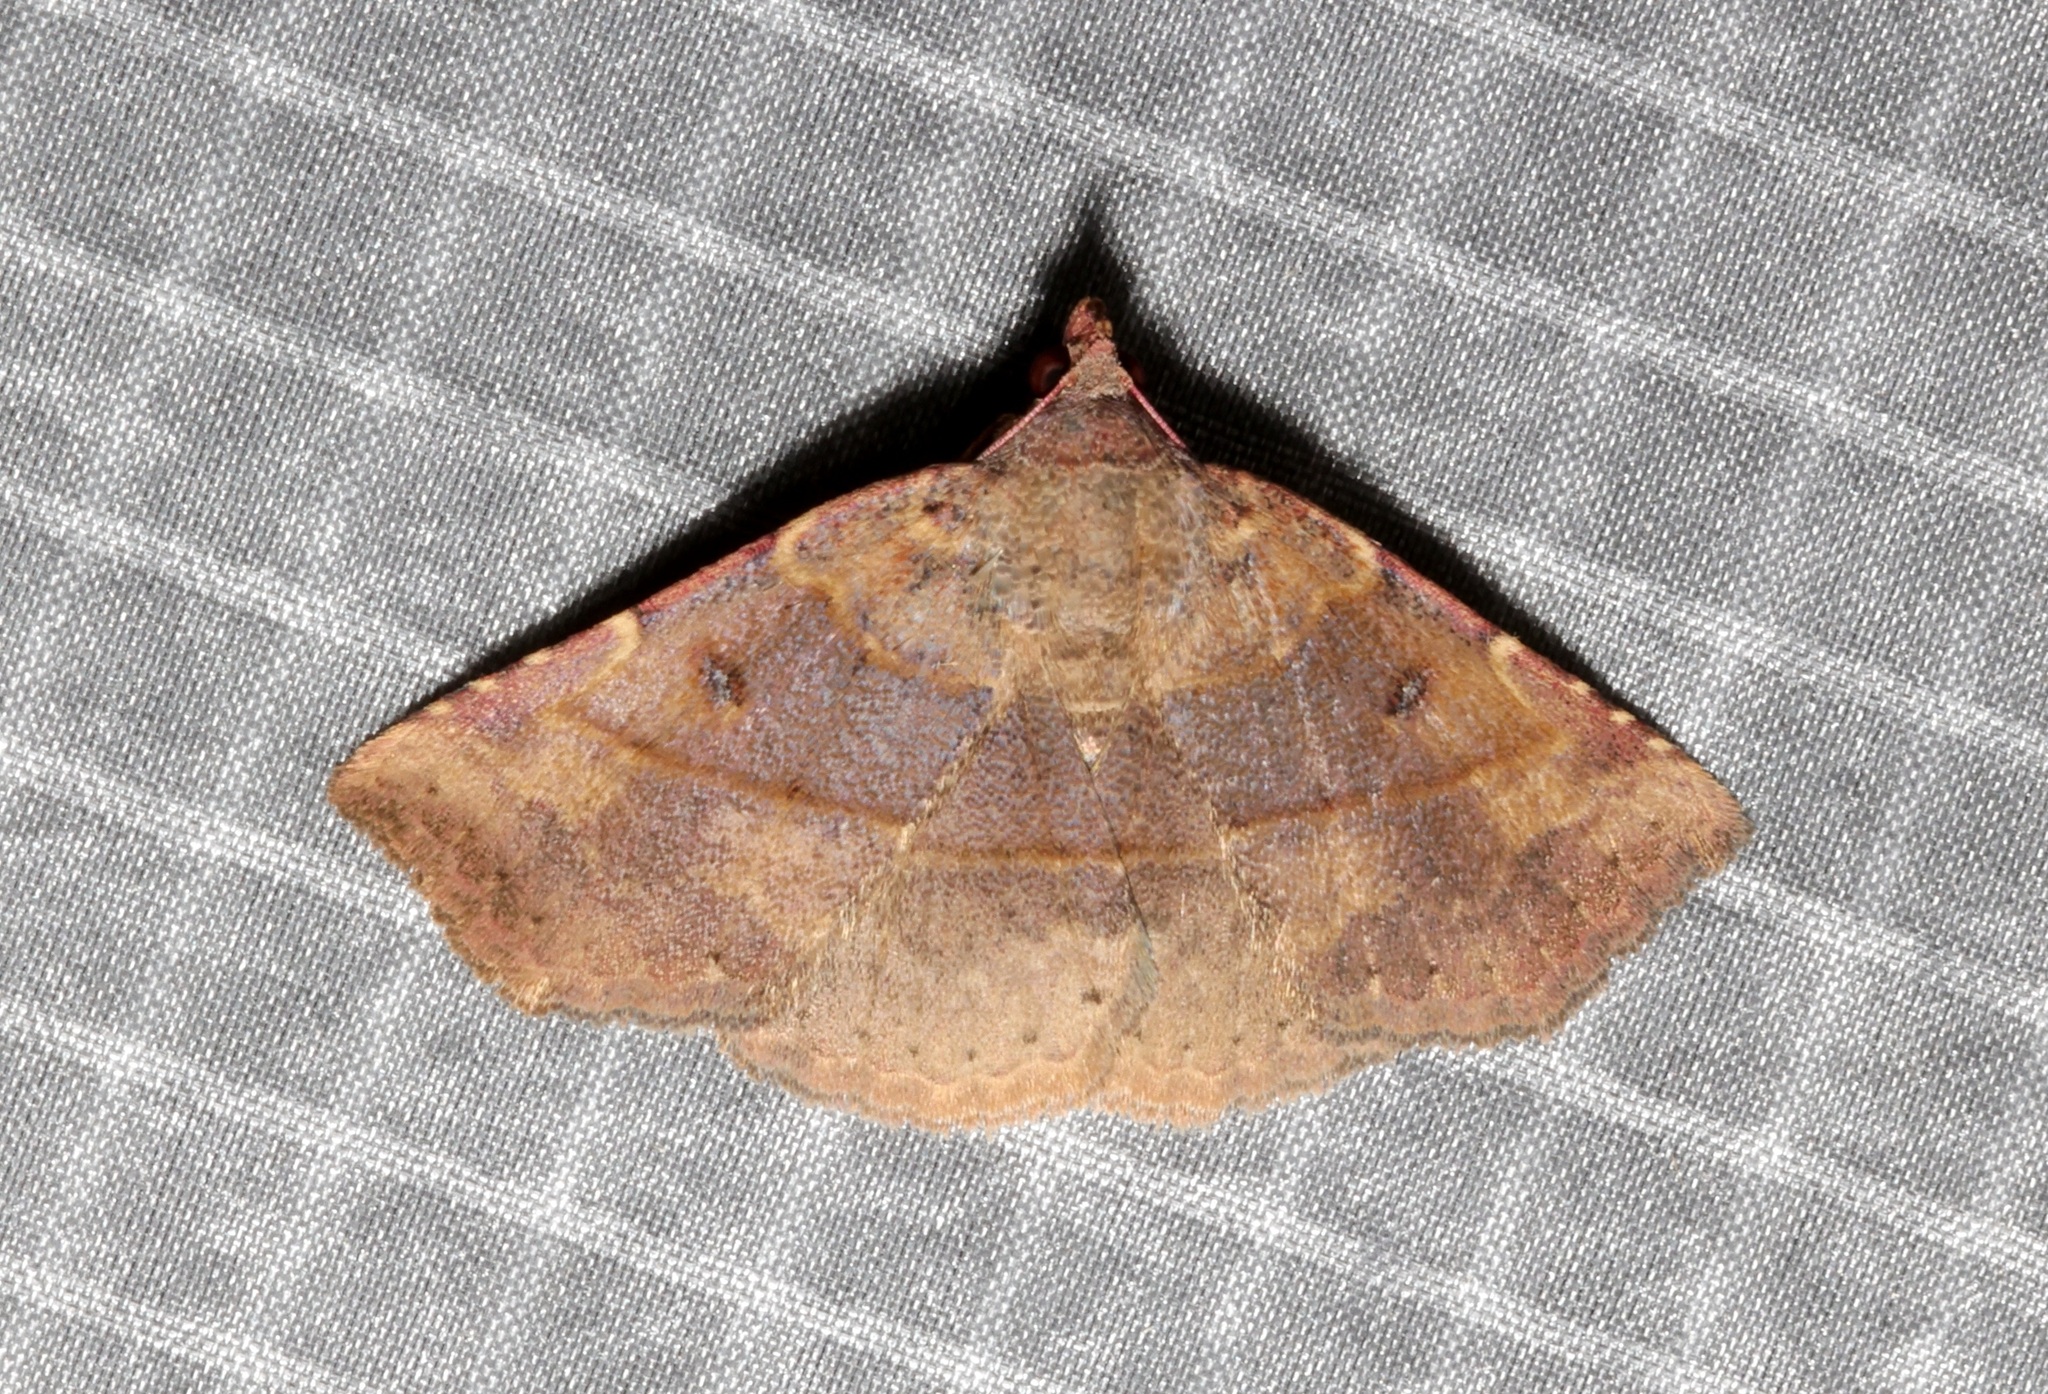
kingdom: Animalia
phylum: Arthropoda
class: Insecta
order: Lepidoptera
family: Erebidae
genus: Condate
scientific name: Condate hypenoides
